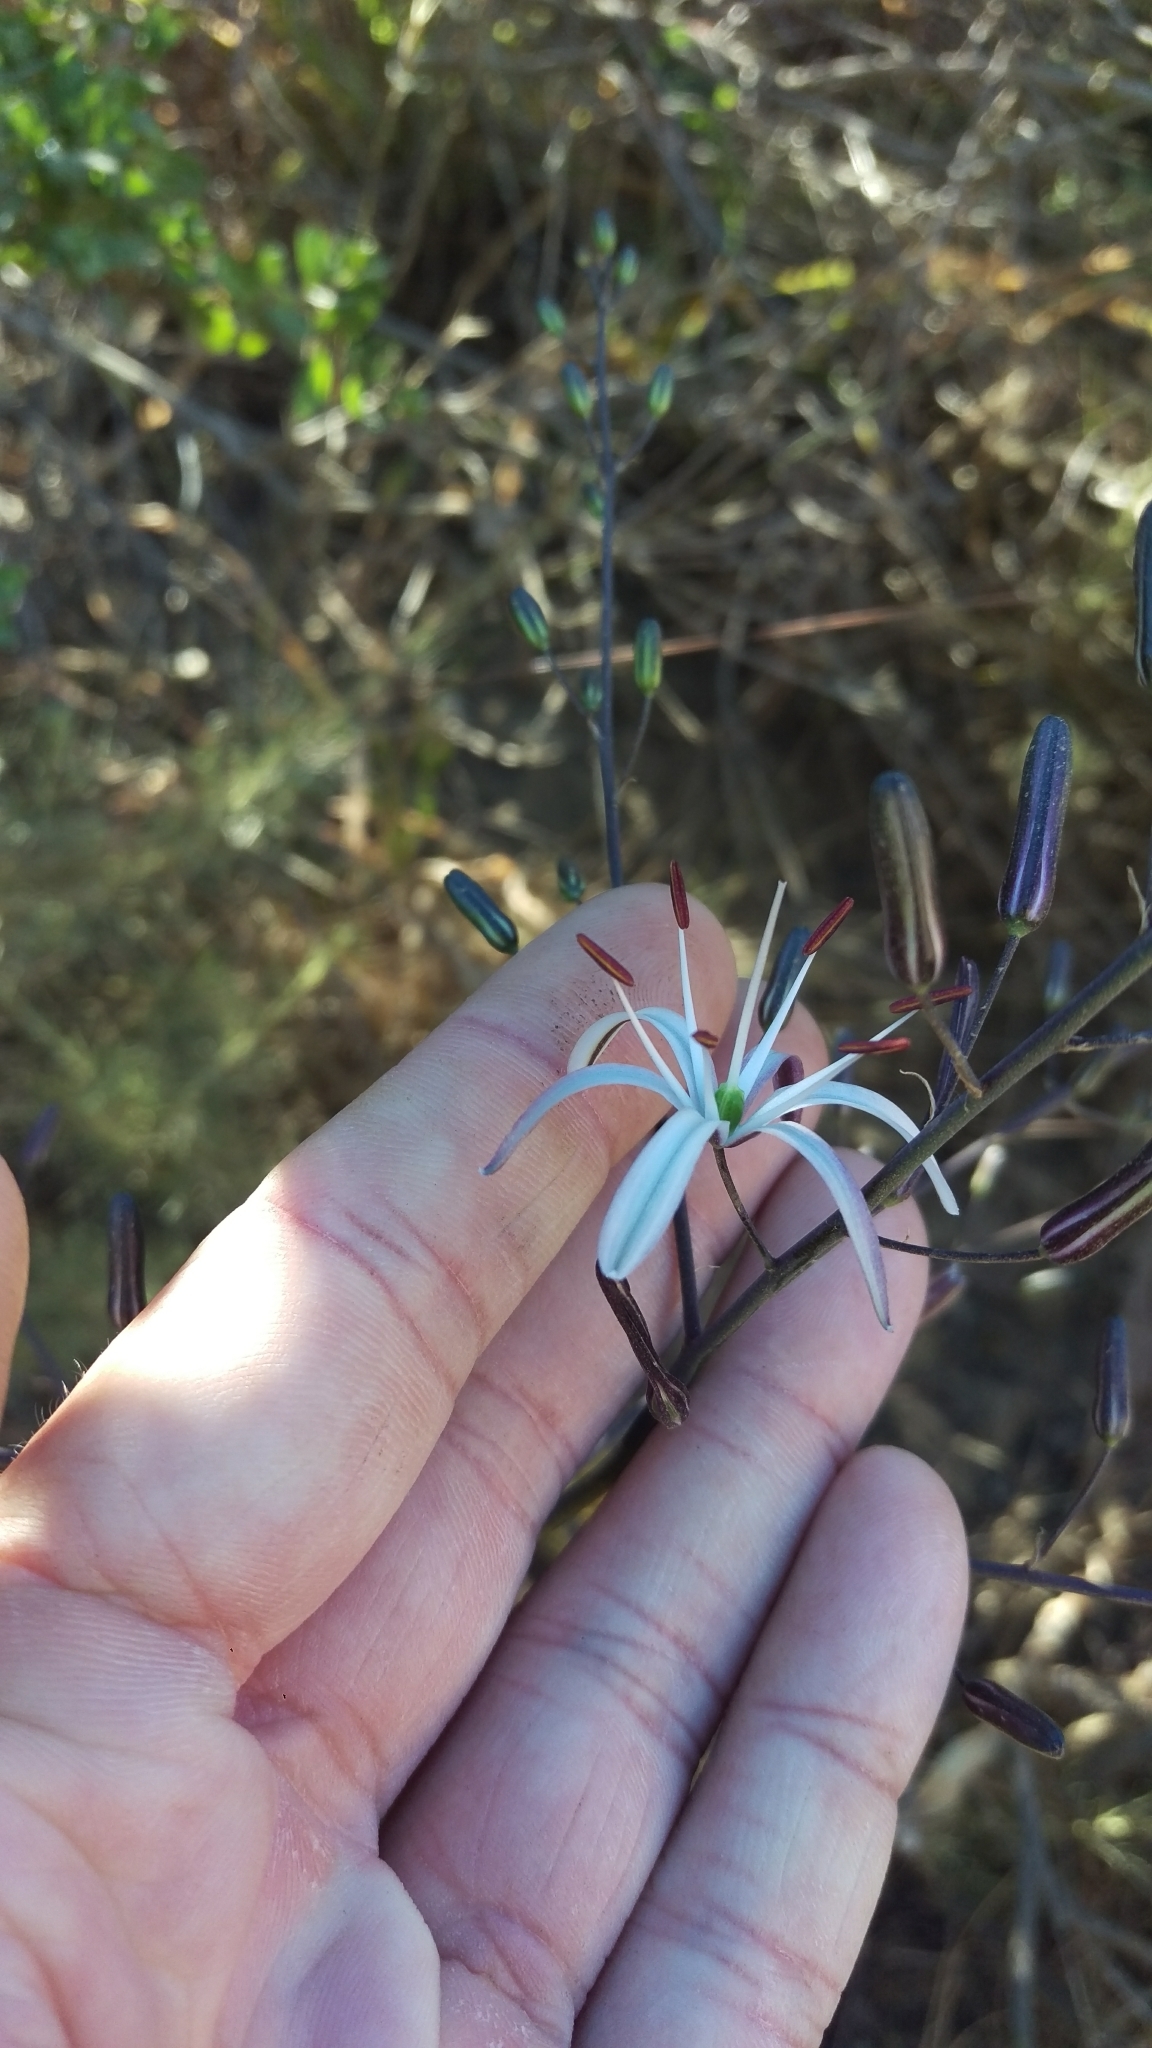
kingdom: Plantae
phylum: Tracheophyta
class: Liliopsida
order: Asparagales
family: Asparagaceae
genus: Chlorogalum
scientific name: Chlorogalum pomeridianum
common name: Amole
